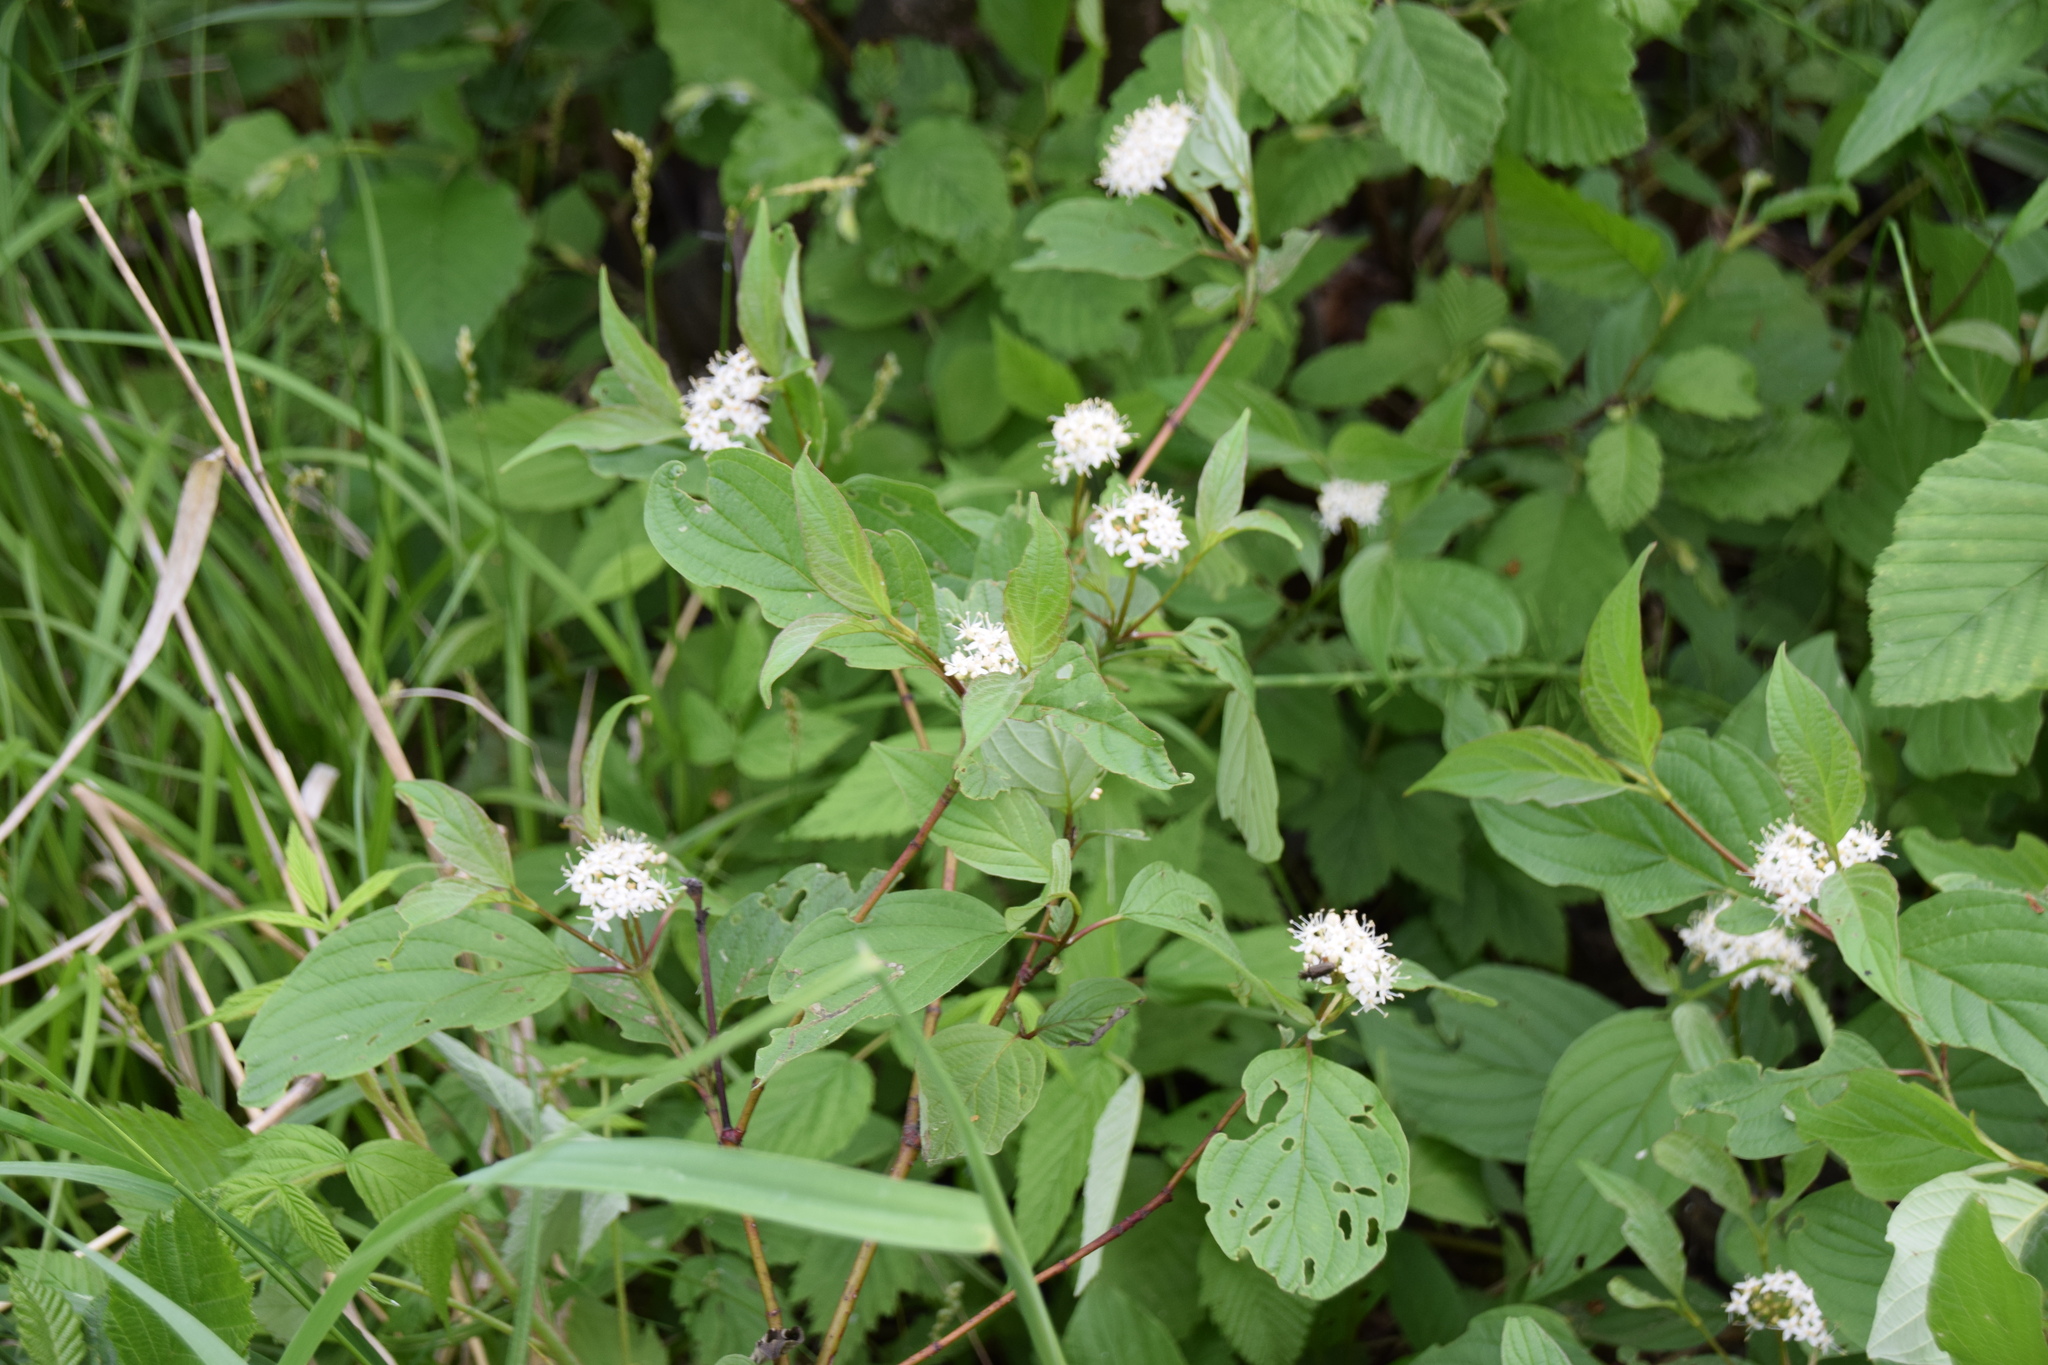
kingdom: Plantae
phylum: Tracheophyta
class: Magnoliopsida
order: Cornales
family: Cornaceae
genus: Cornus
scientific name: Cornus sericea
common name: Red-osier dogwood
